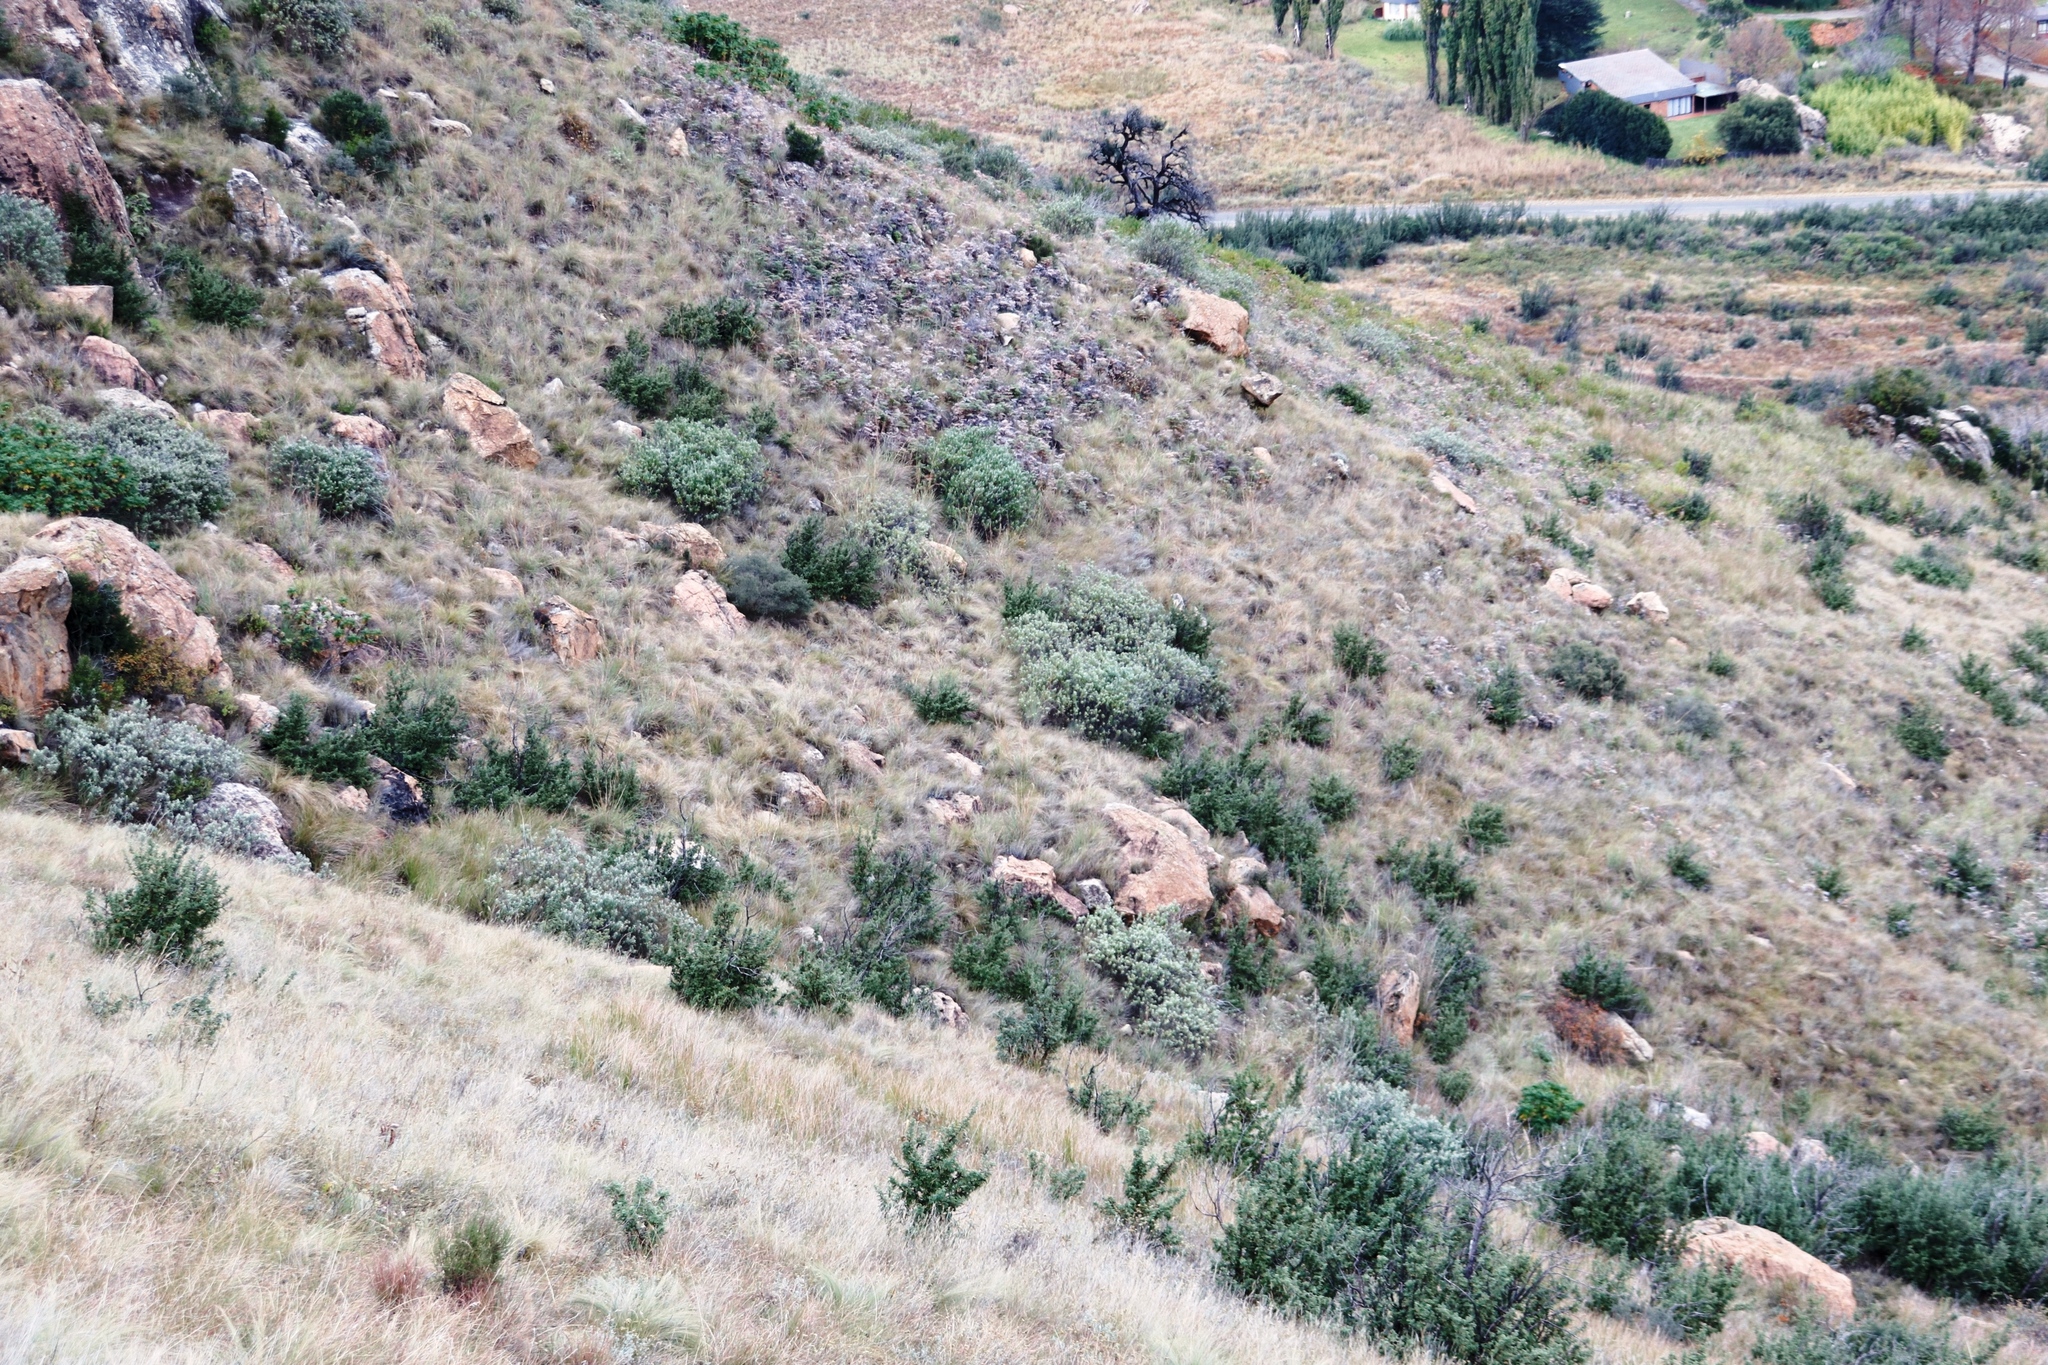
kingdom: Plantae
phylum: Tracheophyta
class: Magnoliopsida
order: Lamiales
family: Scrophulariaceae
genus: Buddleja
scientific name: Buddleja salviifolia
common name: Sagewood
